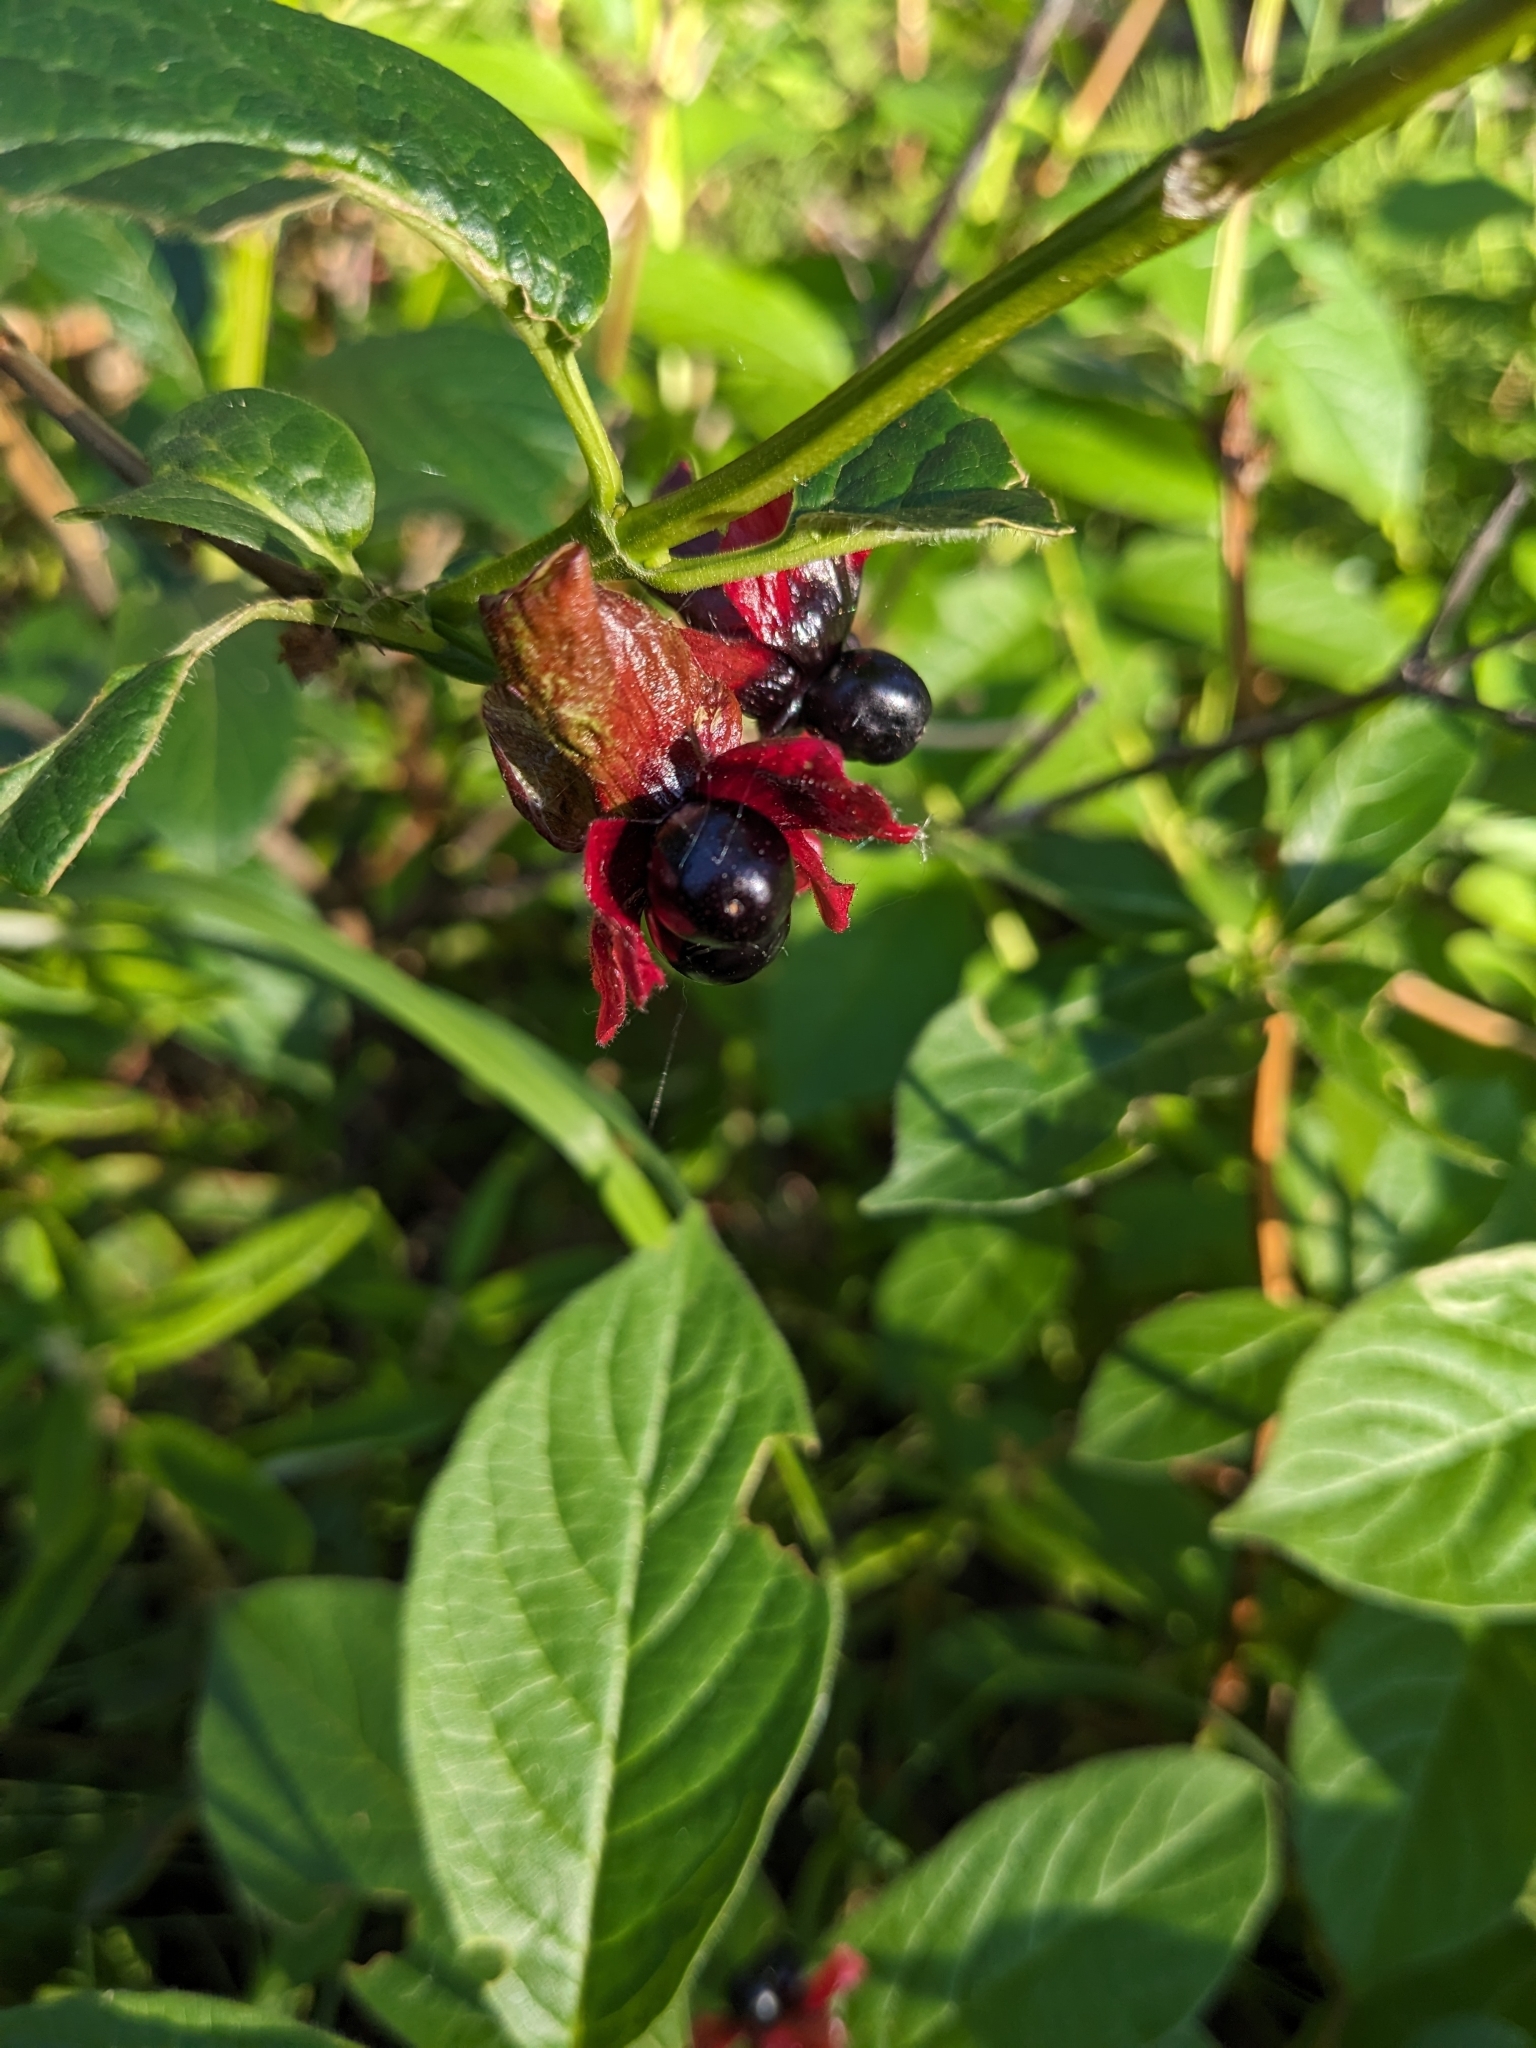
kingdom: Plantae
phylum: Tracheophyta
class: Magnoliopsida
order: Dipsacales
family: Caprifoliaceae
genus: Lonicera
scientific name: Lonicera involucrata
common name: Californian honeysuckle
